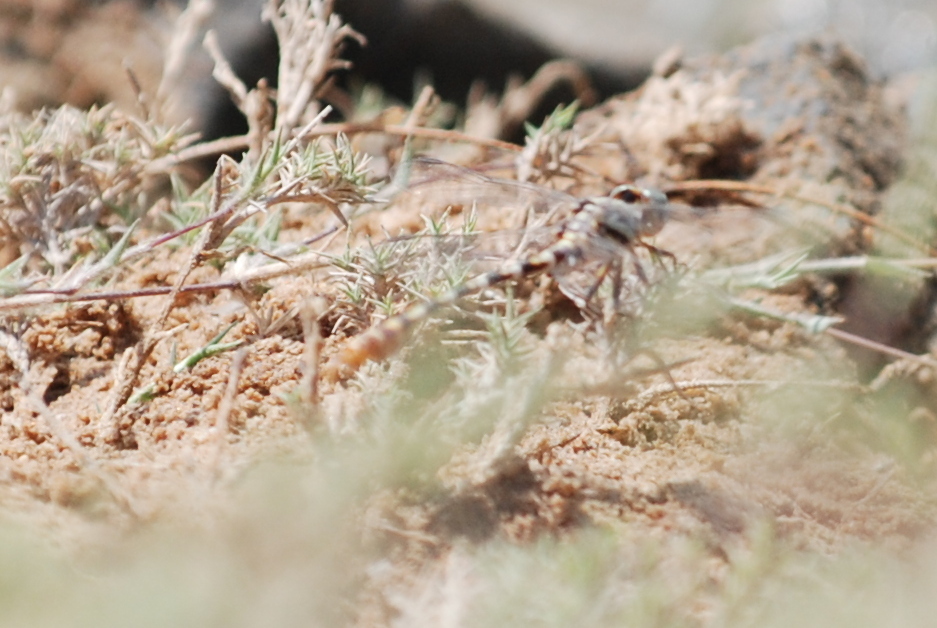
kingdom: Animalia
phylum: Arthropoda
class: Insecta
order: Odonata
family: Gomphidae
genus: Paragomphus
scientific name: Paragomphus sinaiticus
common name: Sinai hooktail
